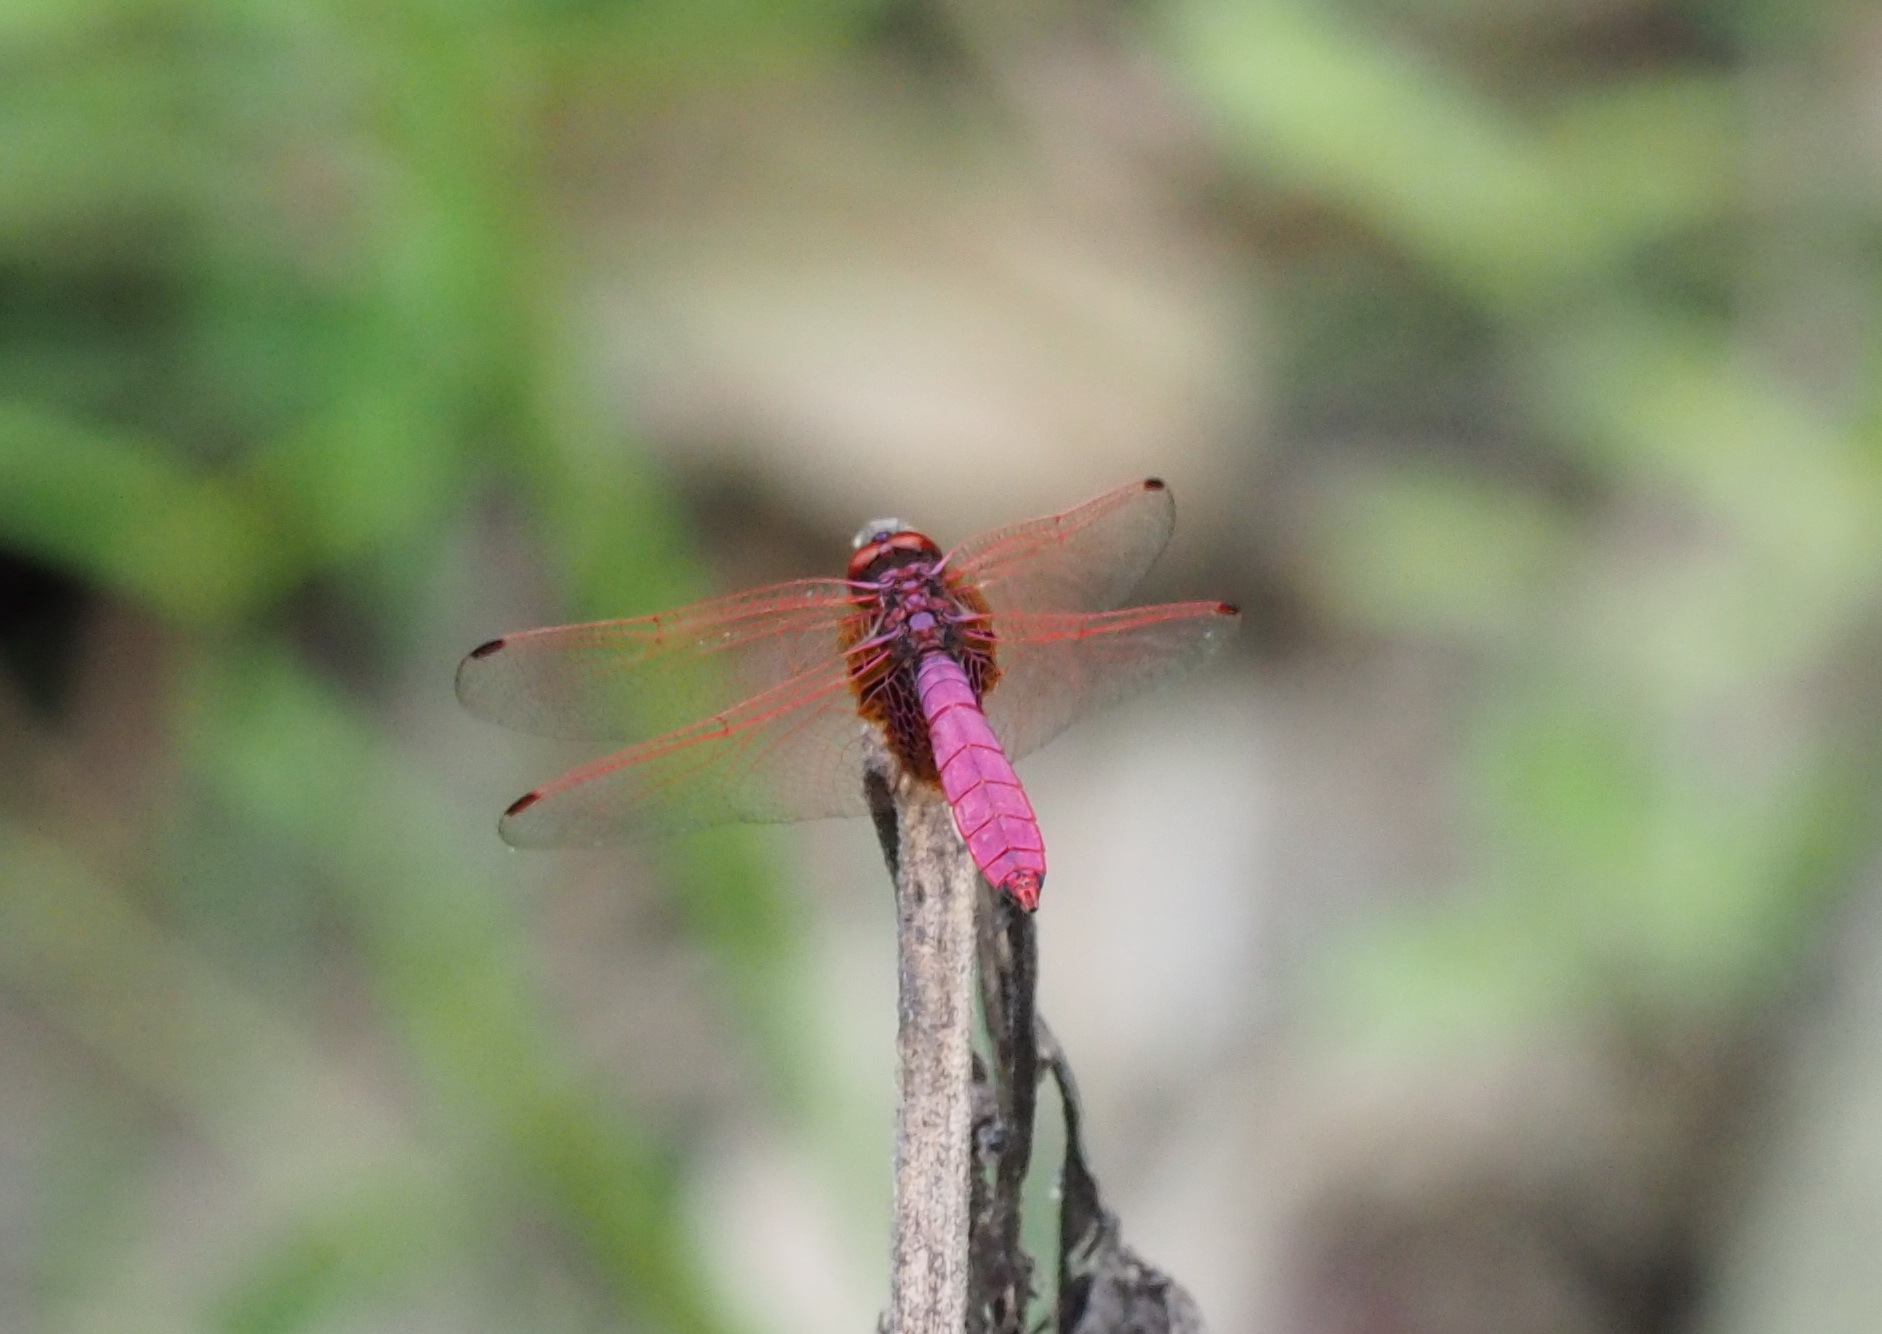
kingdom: Animalia
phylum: Arthropoda
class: Insecta
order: Odonata
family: Libellulidae
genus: Trithemis
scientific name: Trithemis aurora
